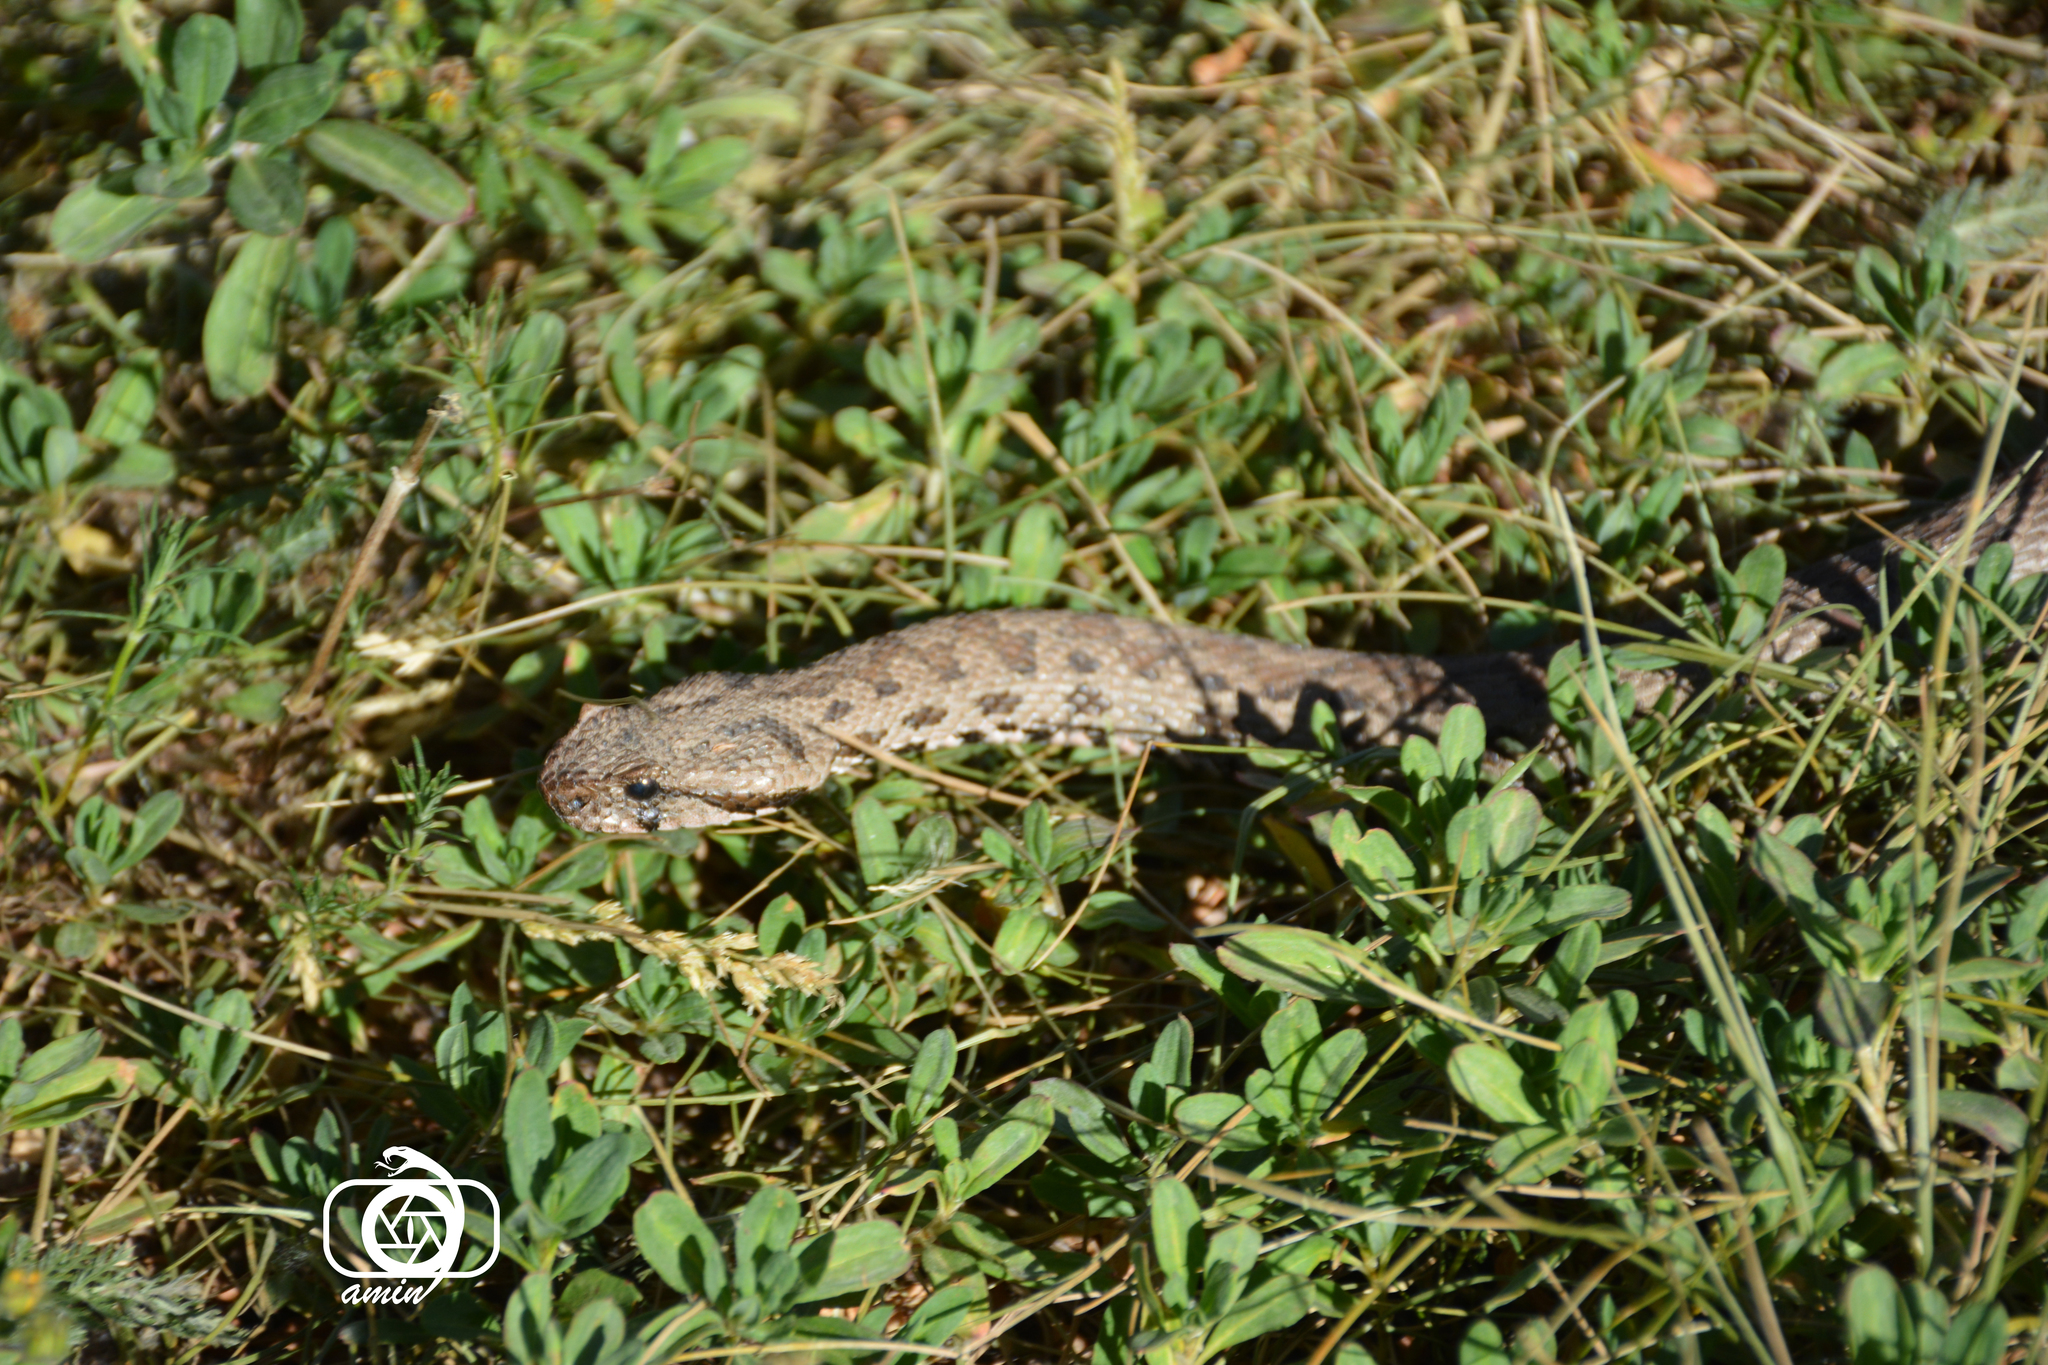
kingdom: Animalia
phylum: Chordata
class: Squamata
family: Viperidae
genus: Montivipera
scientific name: Montivipera latifii
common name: Latifi's viper
